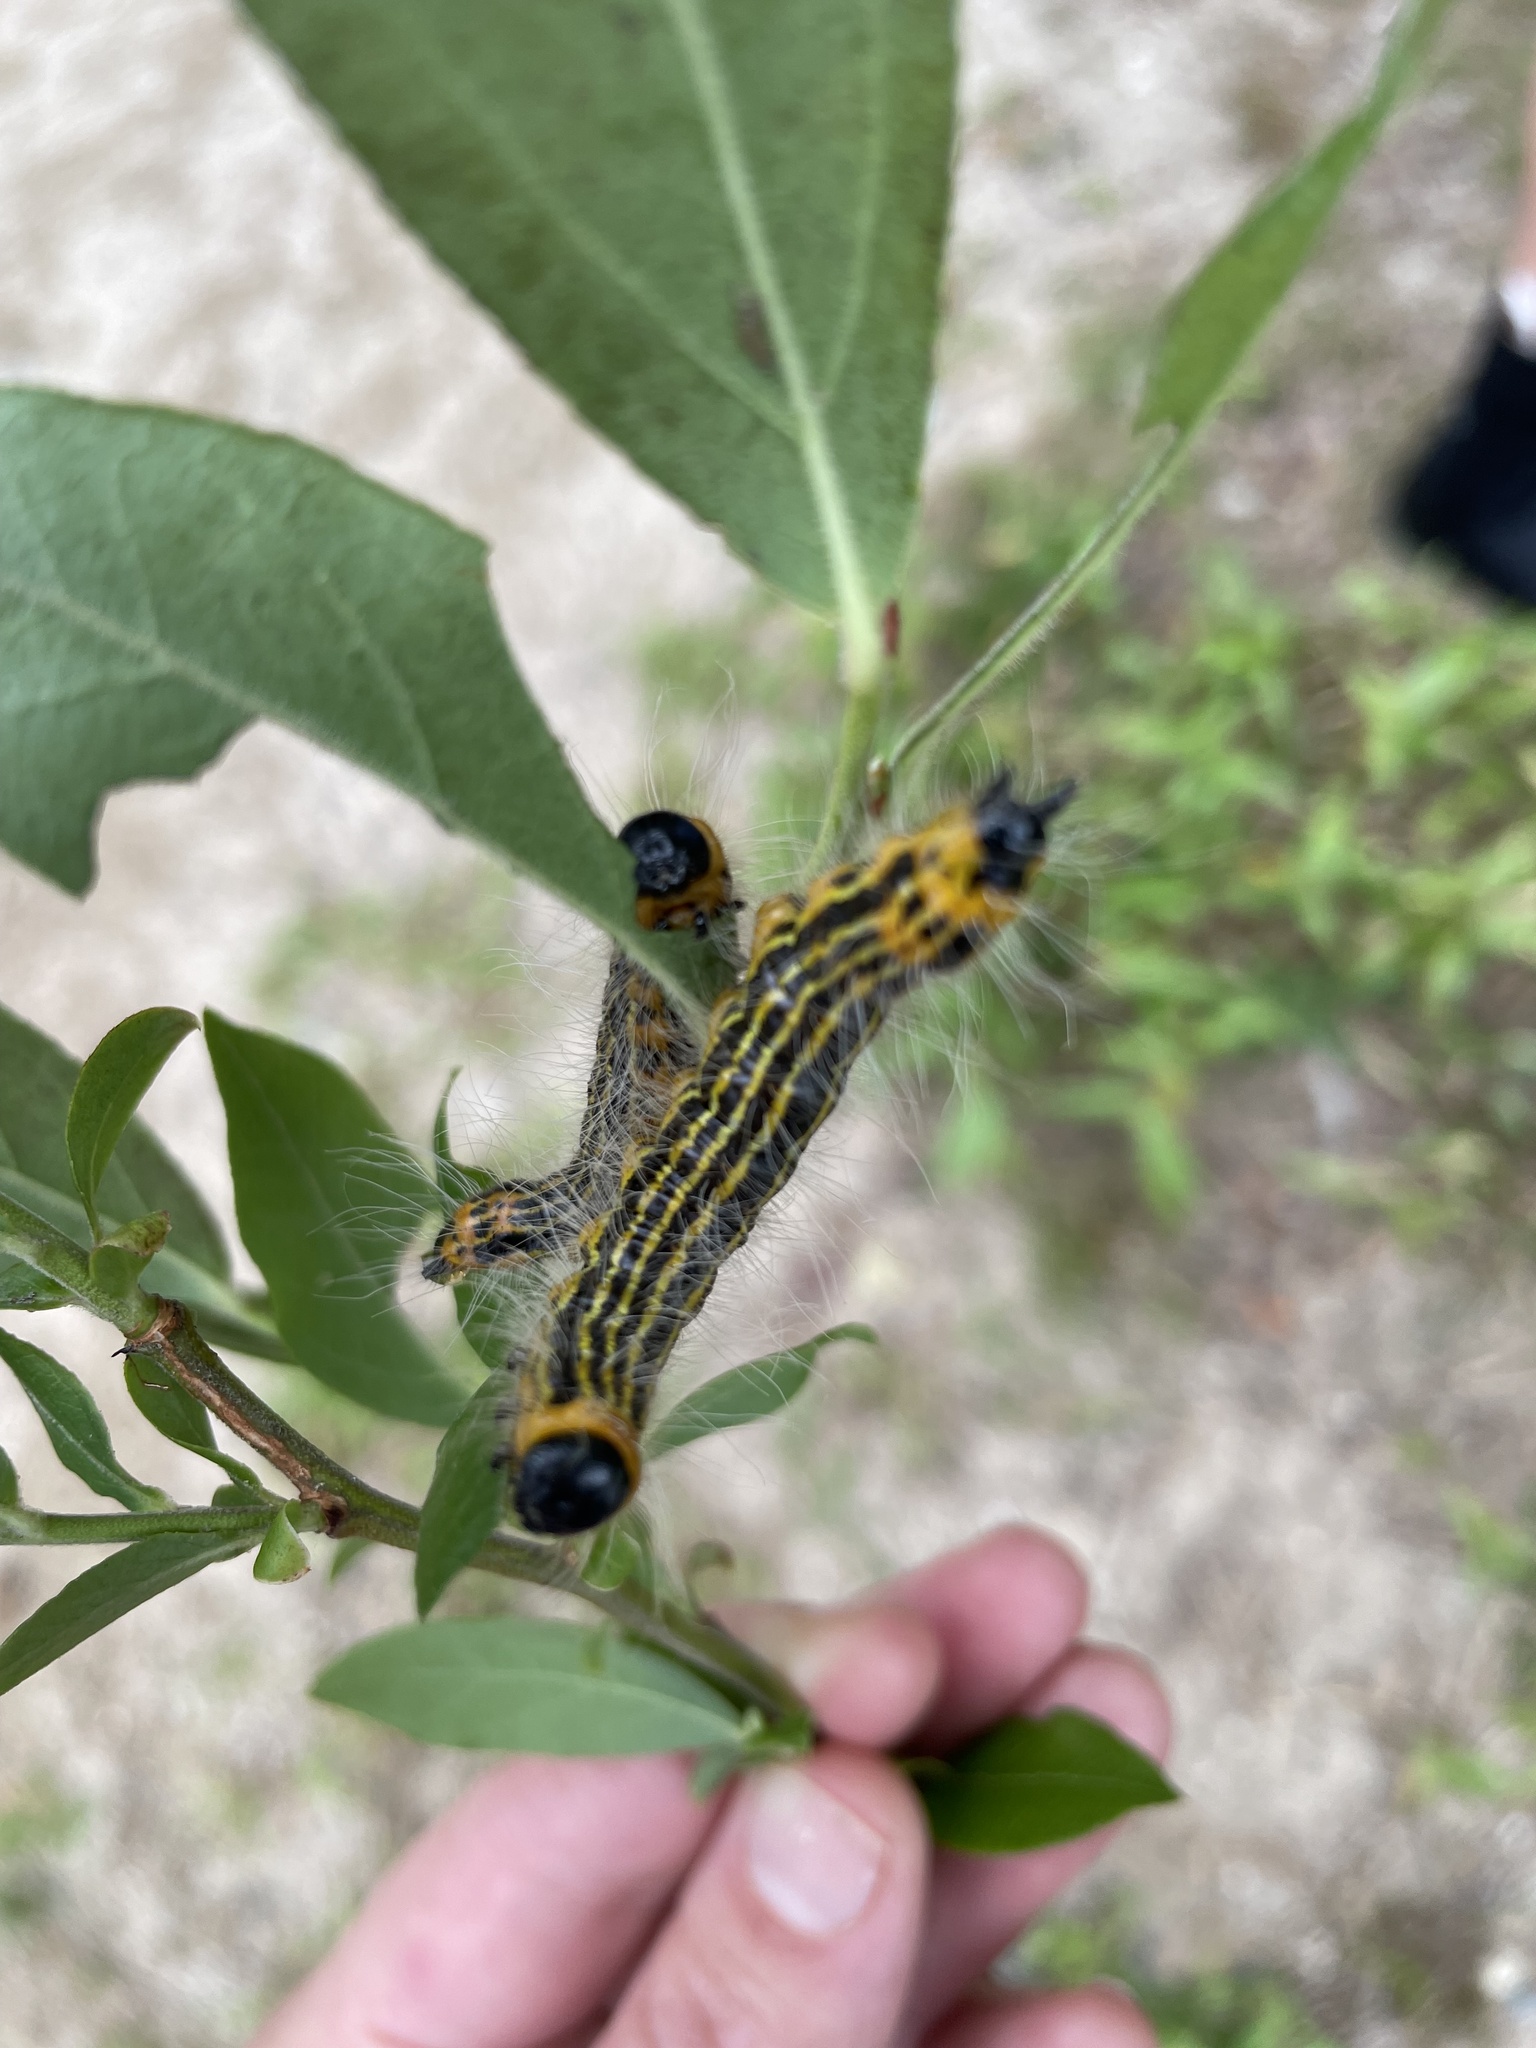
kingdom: Animalia
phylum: Arthropoda
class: Insecta
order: Lepidoptera
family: Notodontidae
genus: Datana
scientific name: Datana drexelii
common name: Drexel's datana
